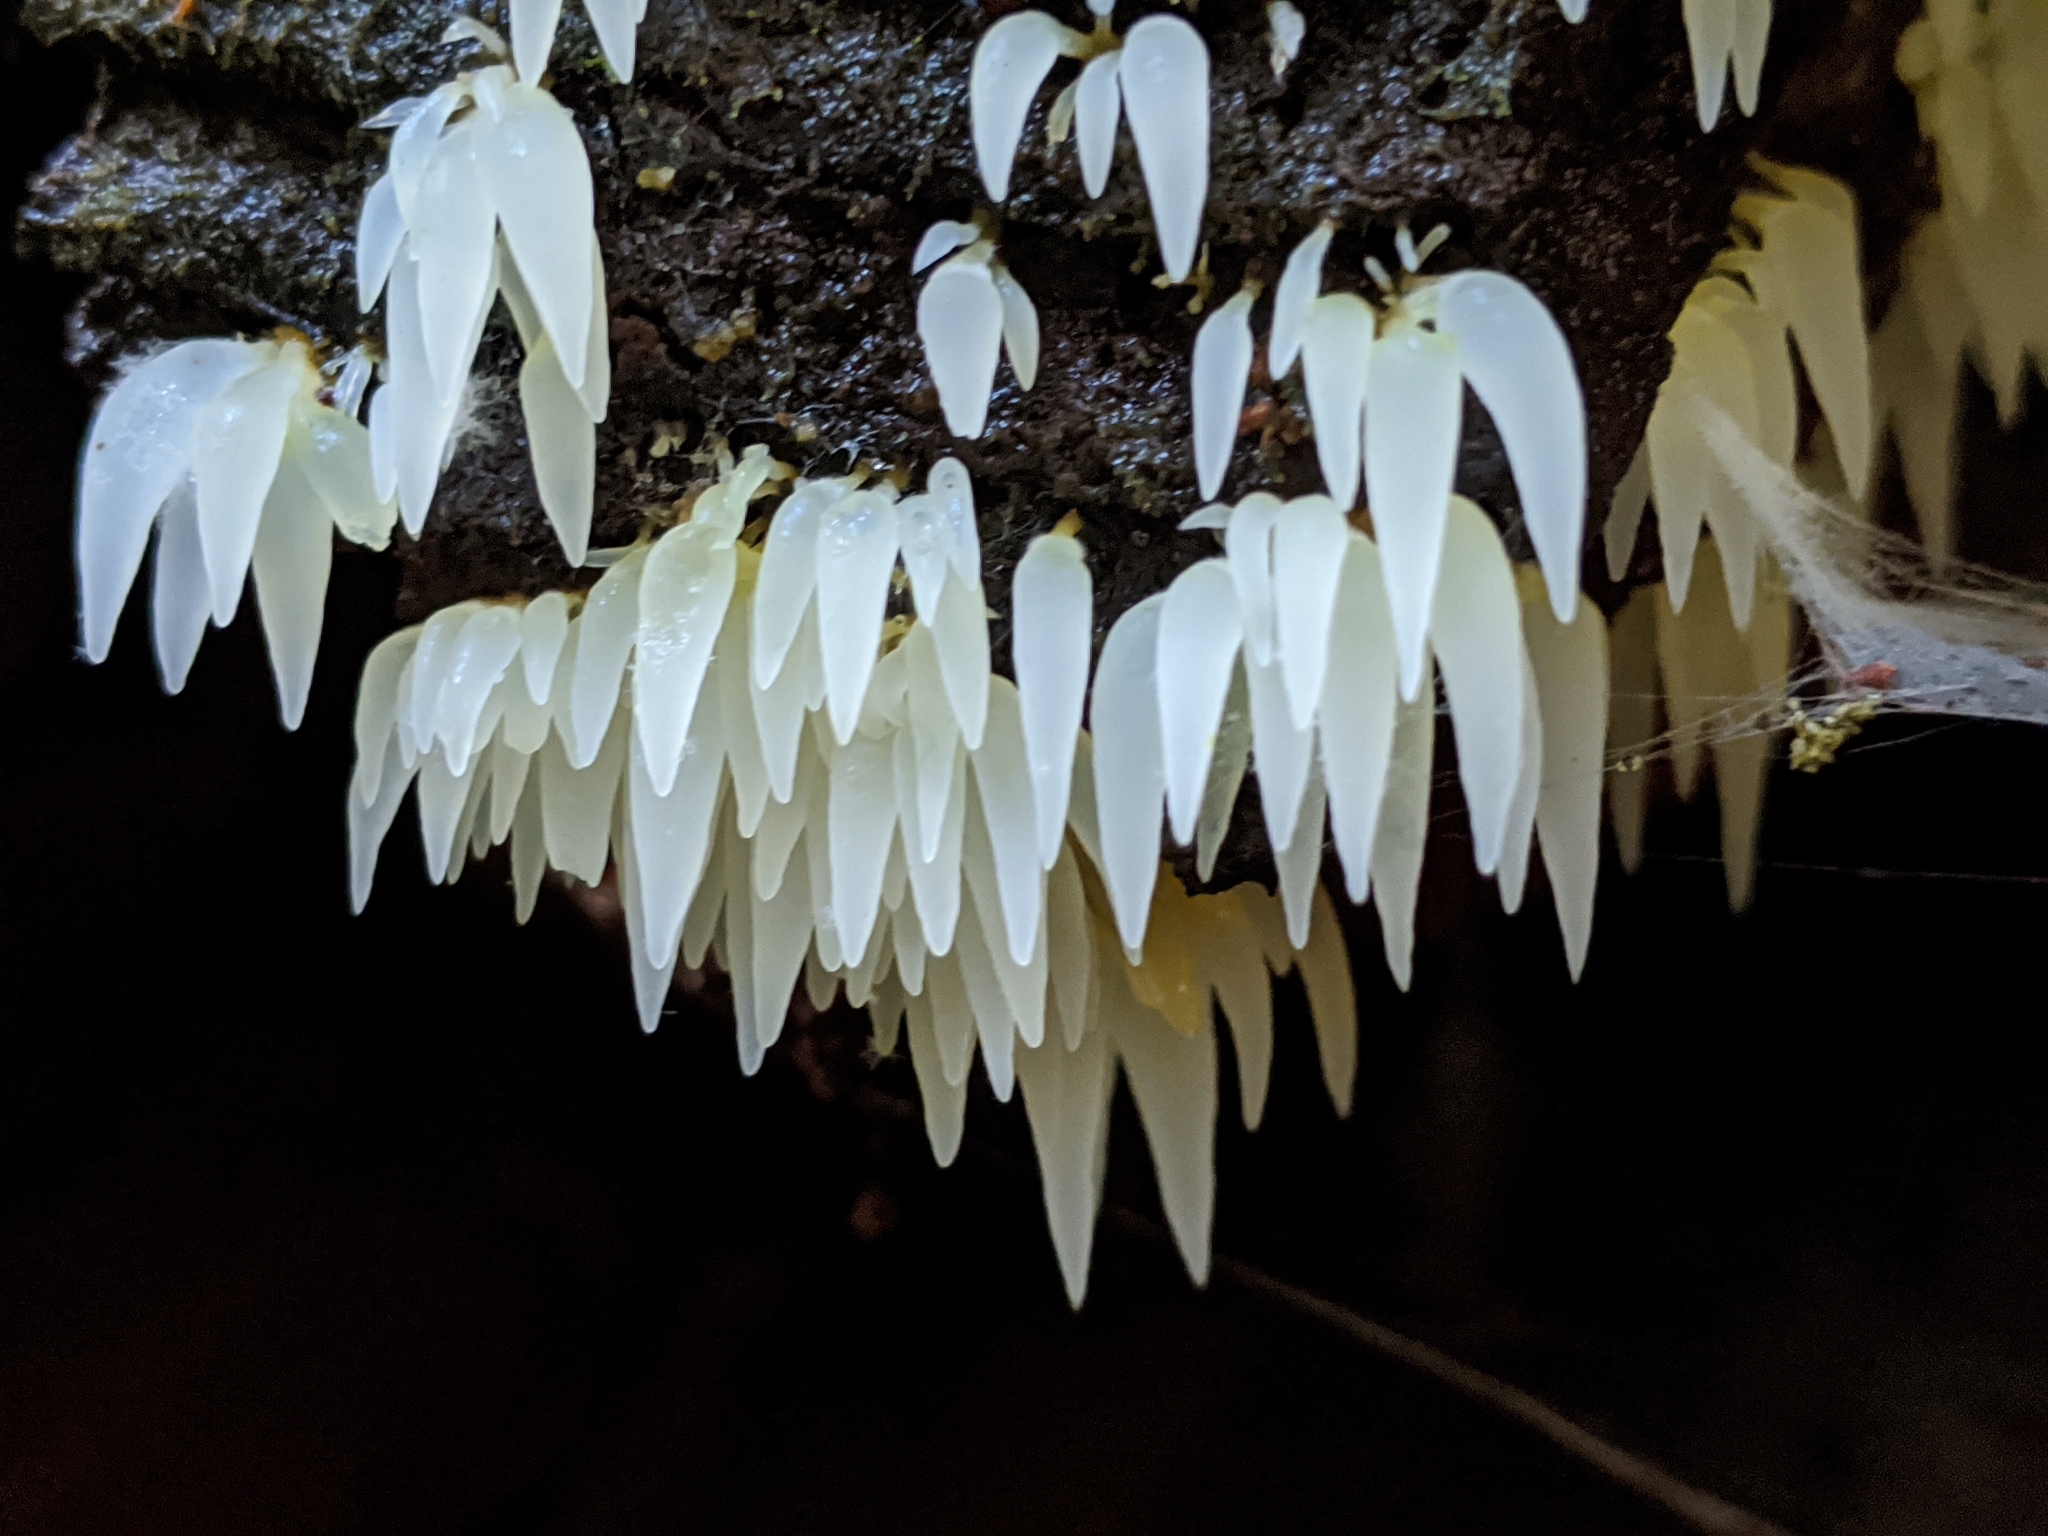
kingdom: Fungi
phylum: Basidiomycota
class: Agaricomycetes
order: Agaricales
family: Clavariaceae
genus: Mucronella
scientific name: Mucronella fusiformis
